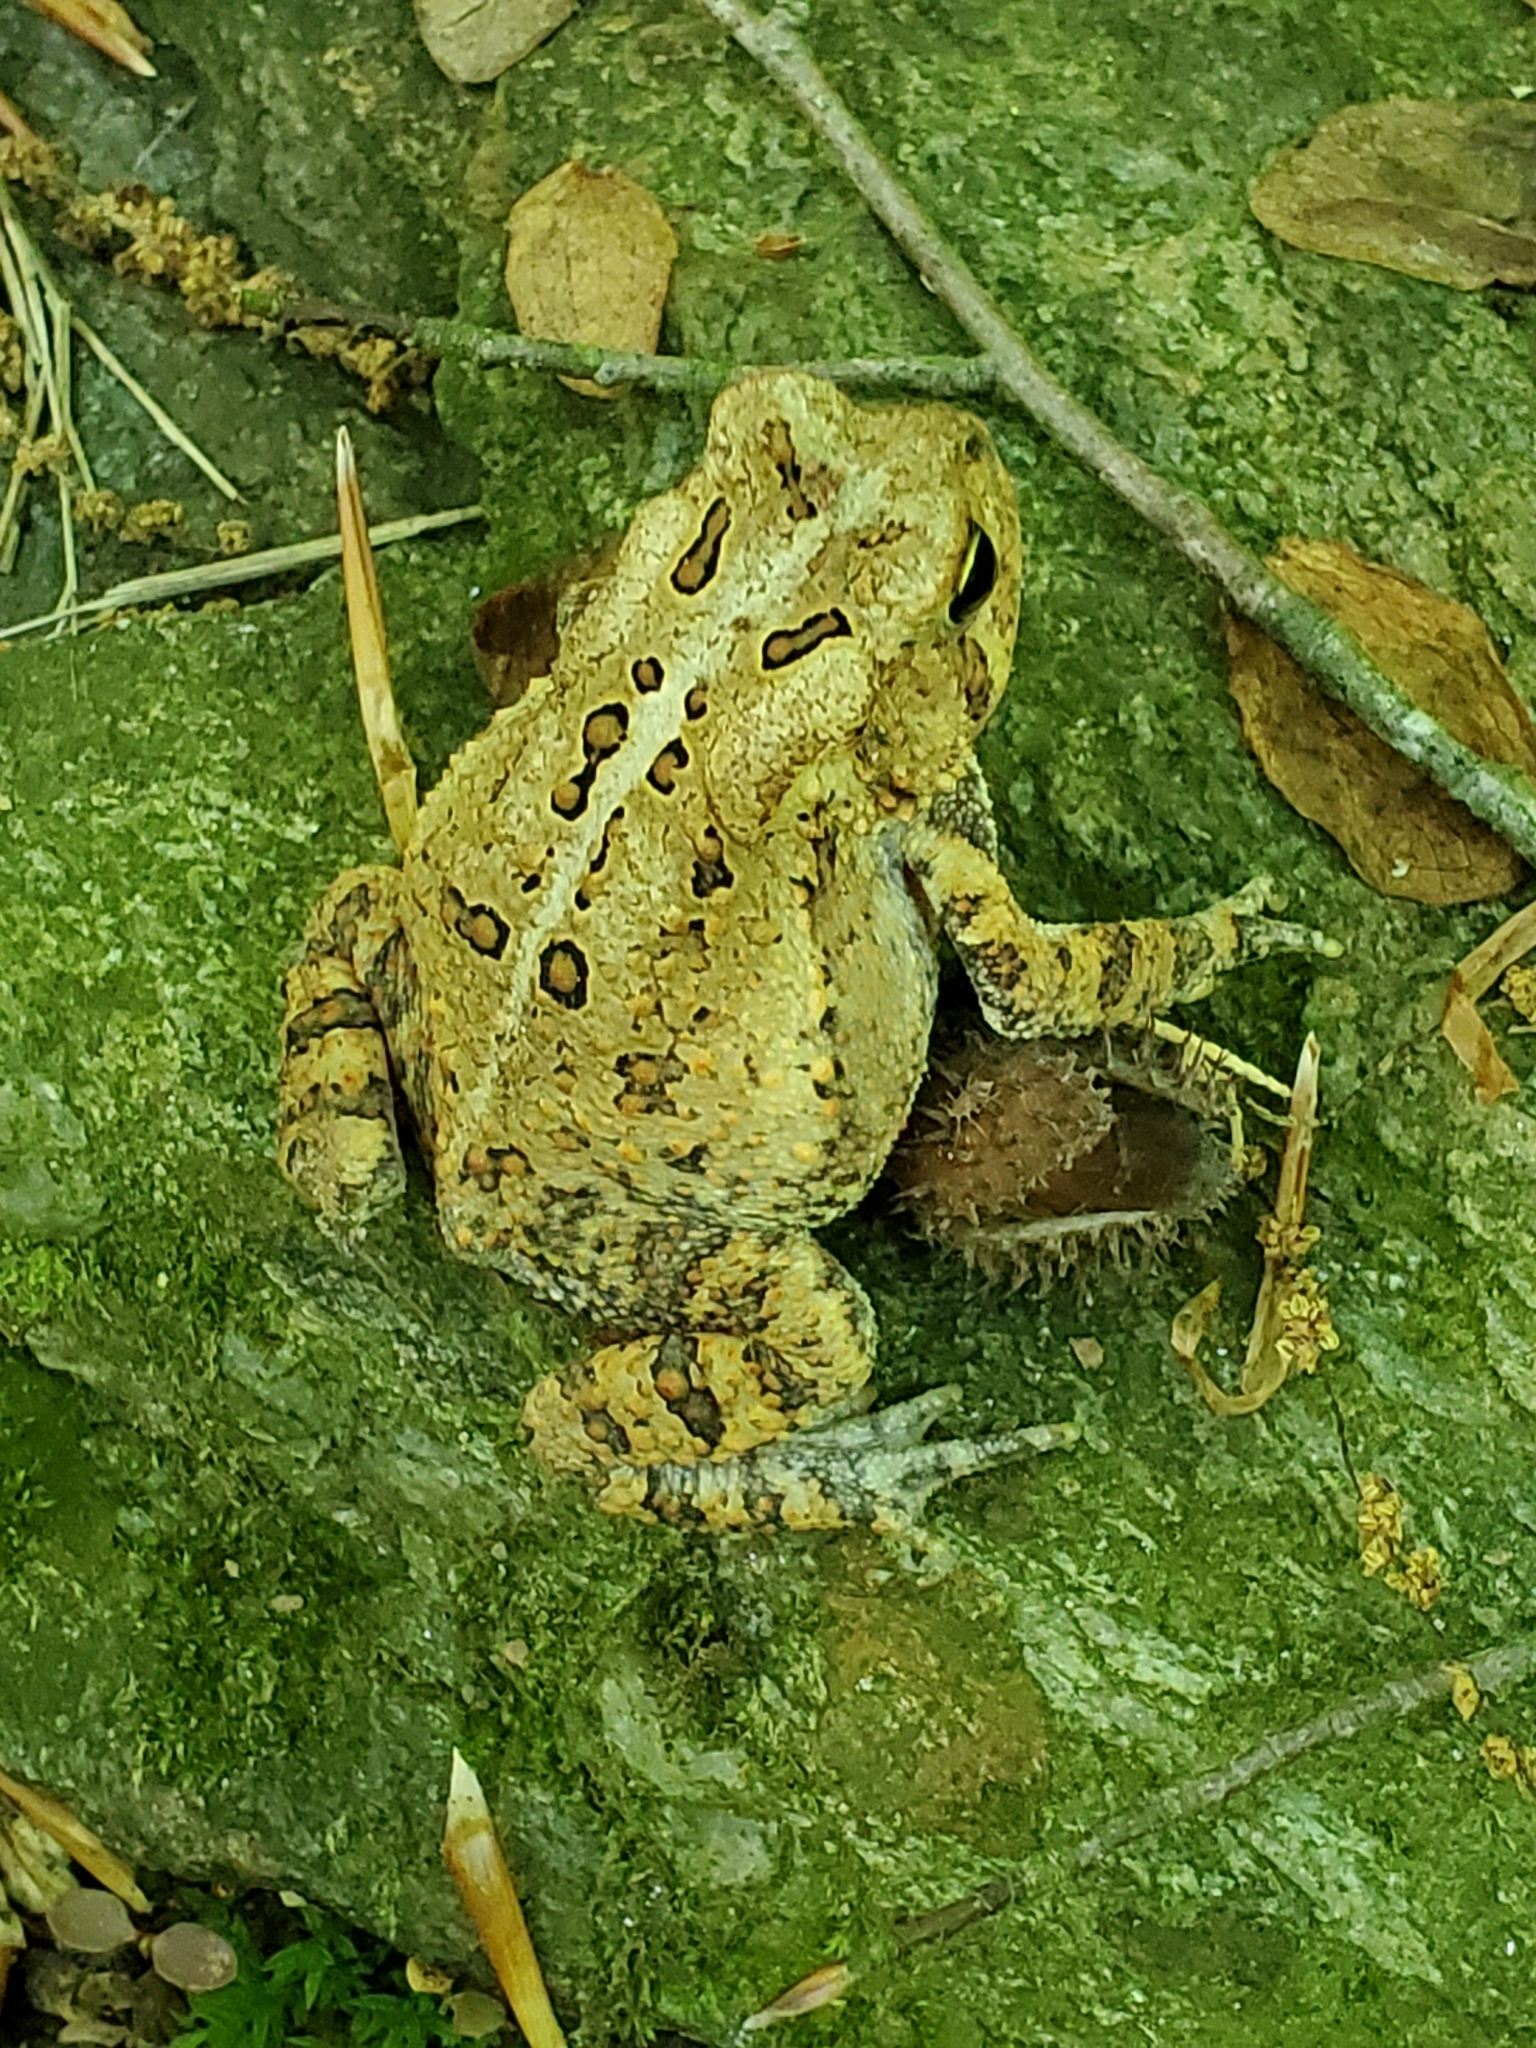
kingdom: Animalia
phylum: Chordata
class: Amphibia
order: Anura
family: Bufonidae
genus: Anaxyrus
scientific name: Anaxyrus americanus
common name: American toad
